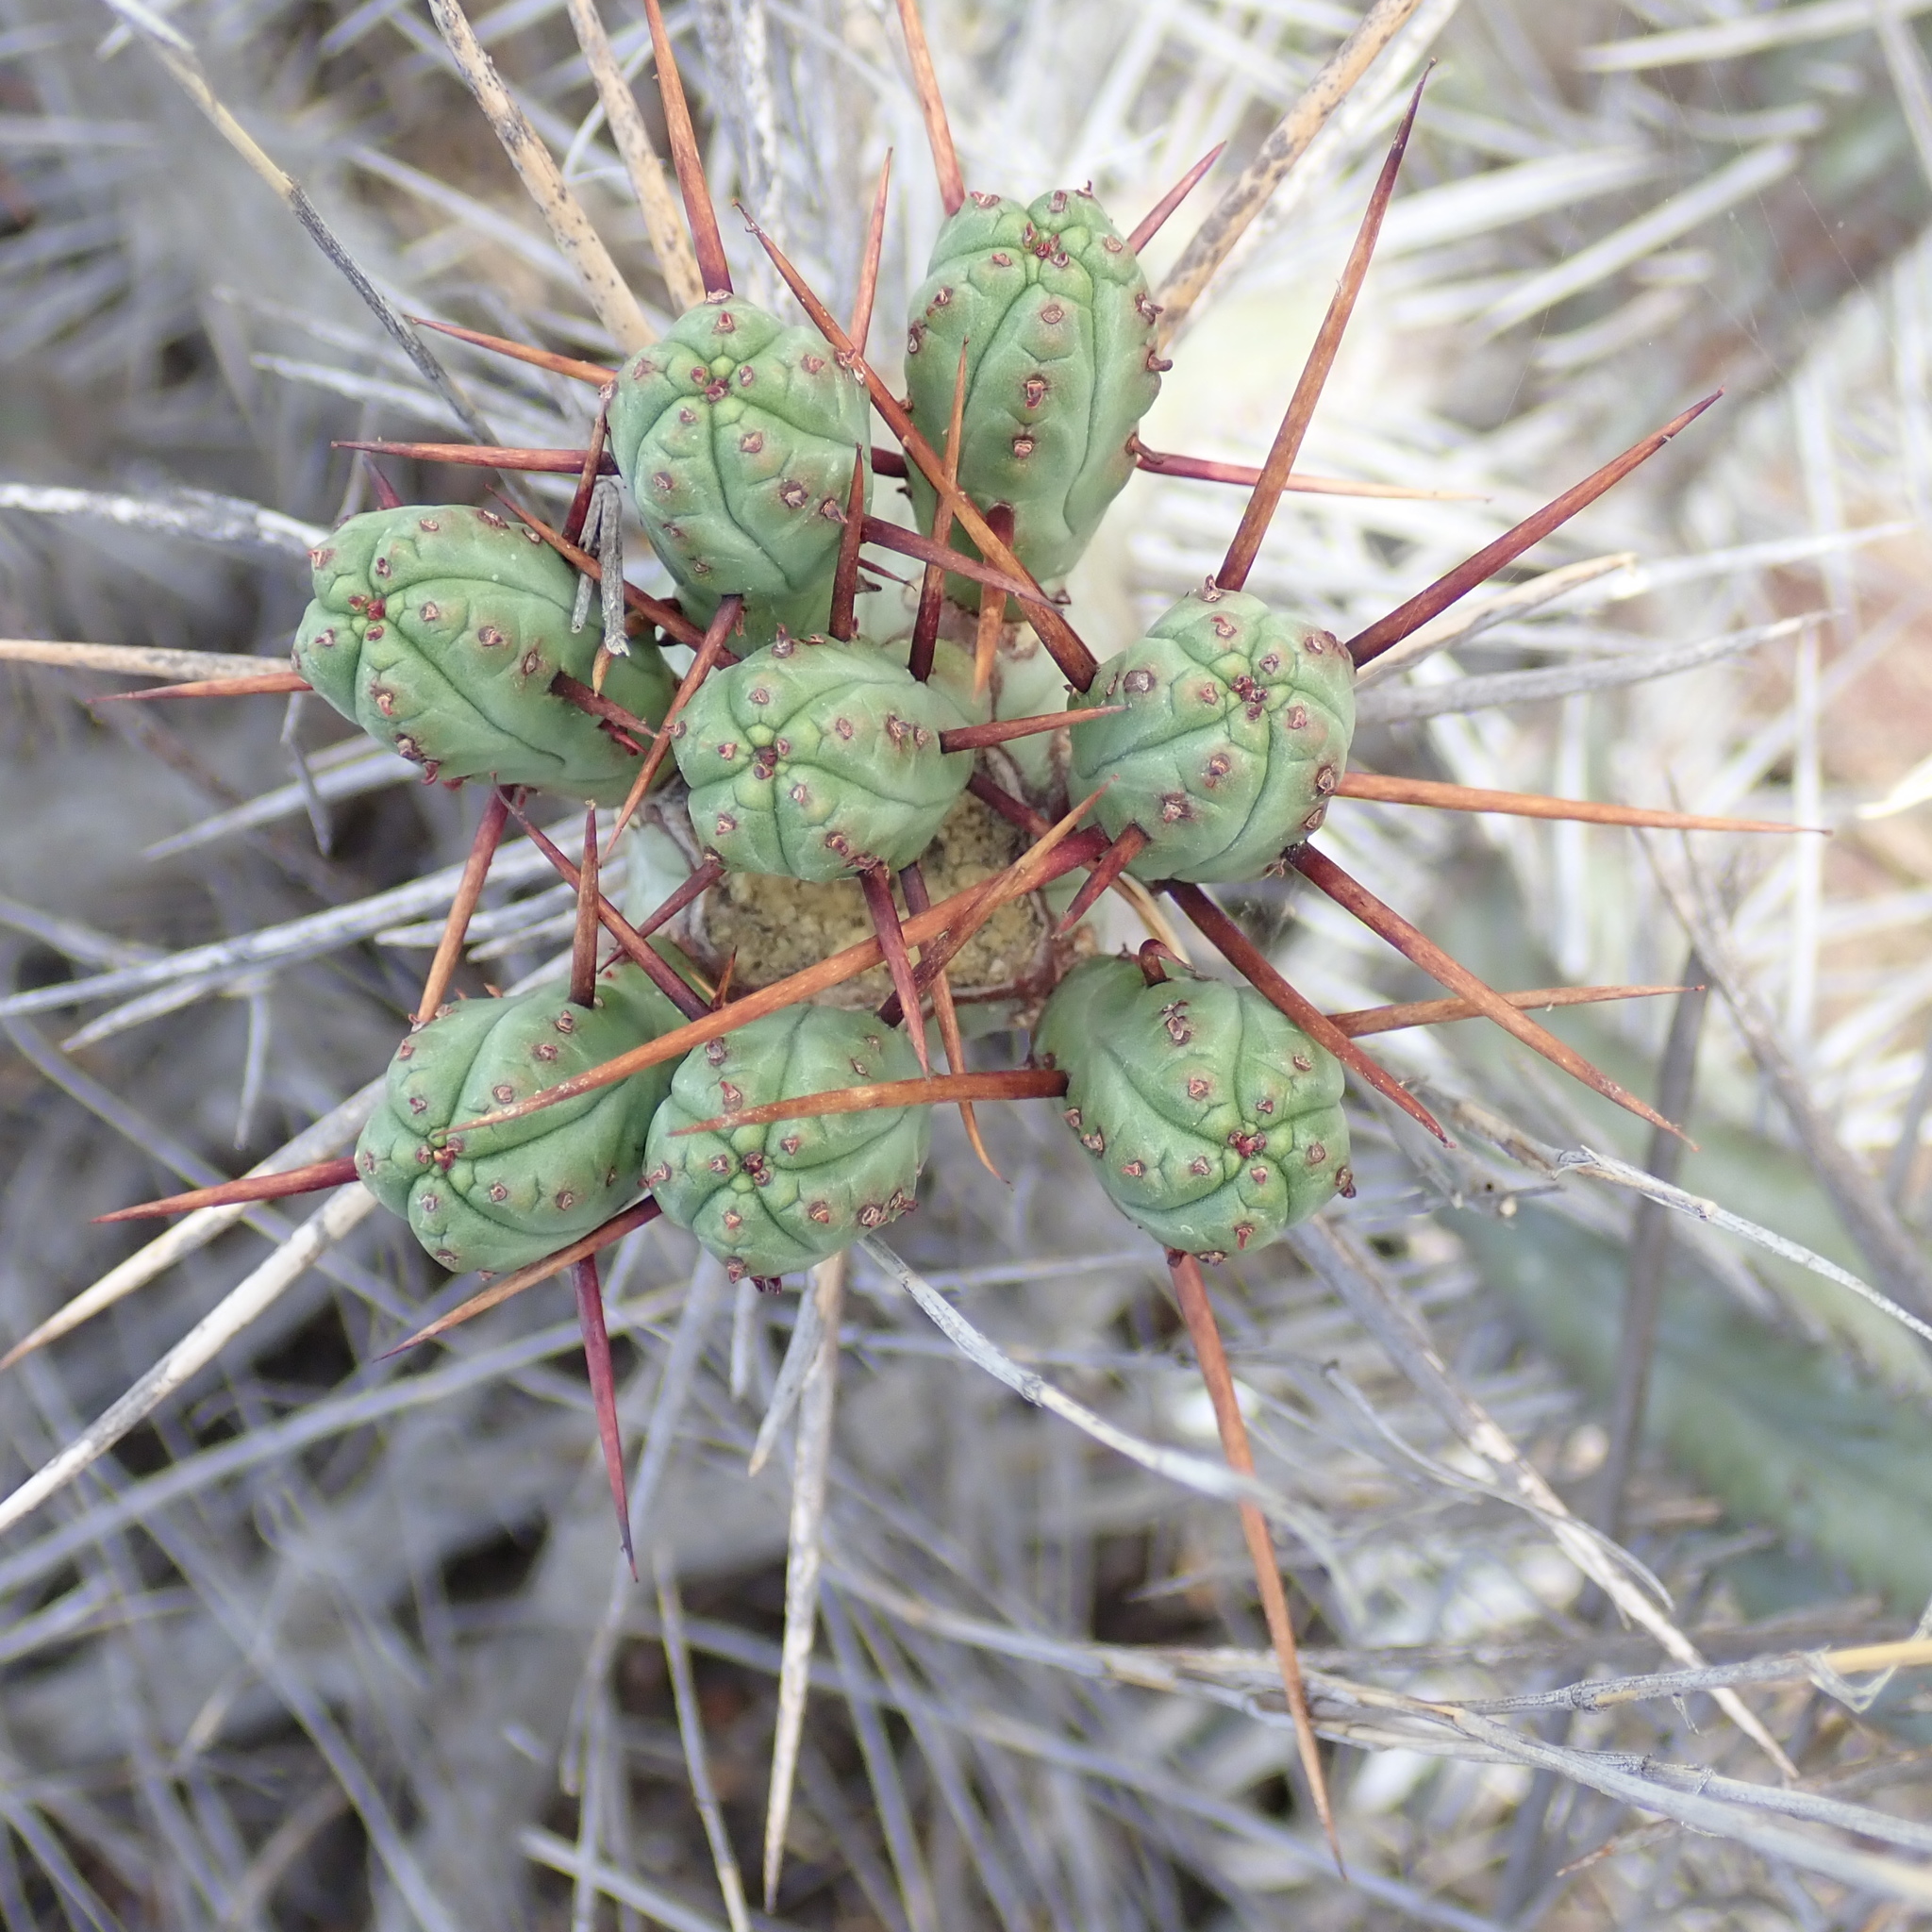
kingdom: Plantae
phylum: Tracheophyta
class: Magnoliopsida
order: Malpighiales
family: Euphorbiaceae
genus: Euphorbia
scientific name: Euphorbia heptagona
